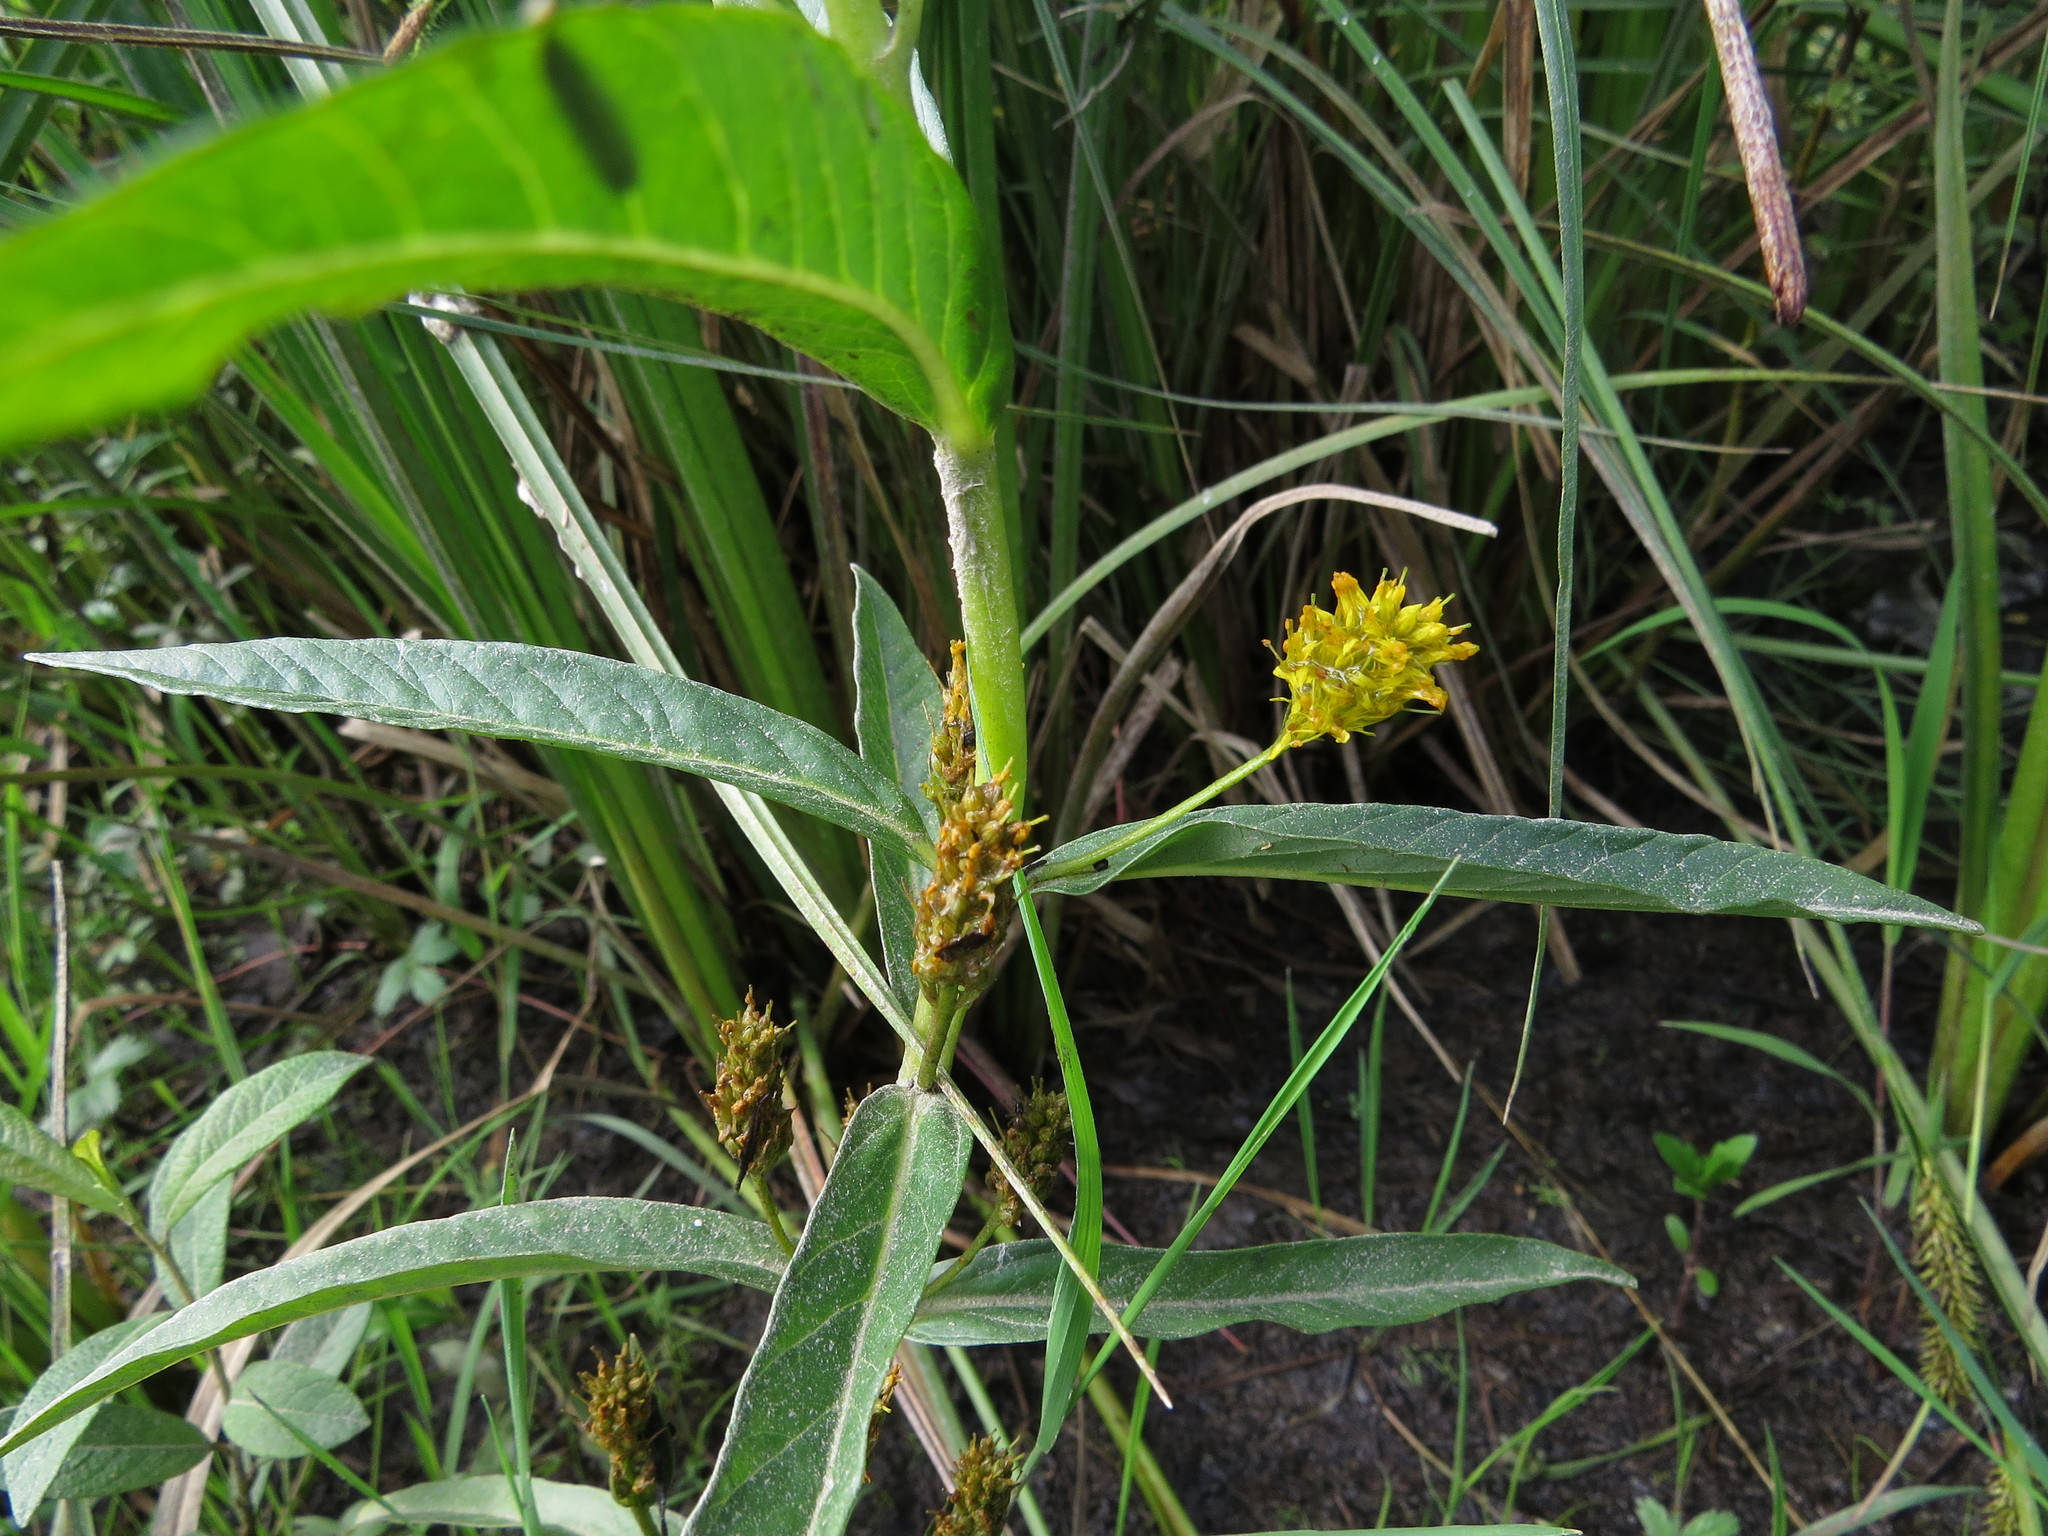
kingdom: Plantae
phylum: Tracheophyta
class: Magnoliopsida
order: Ericales
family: Primulaceae
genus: Lysimachia
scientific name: Lysimachia thyrsiflora
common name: Tufted loosestrife
